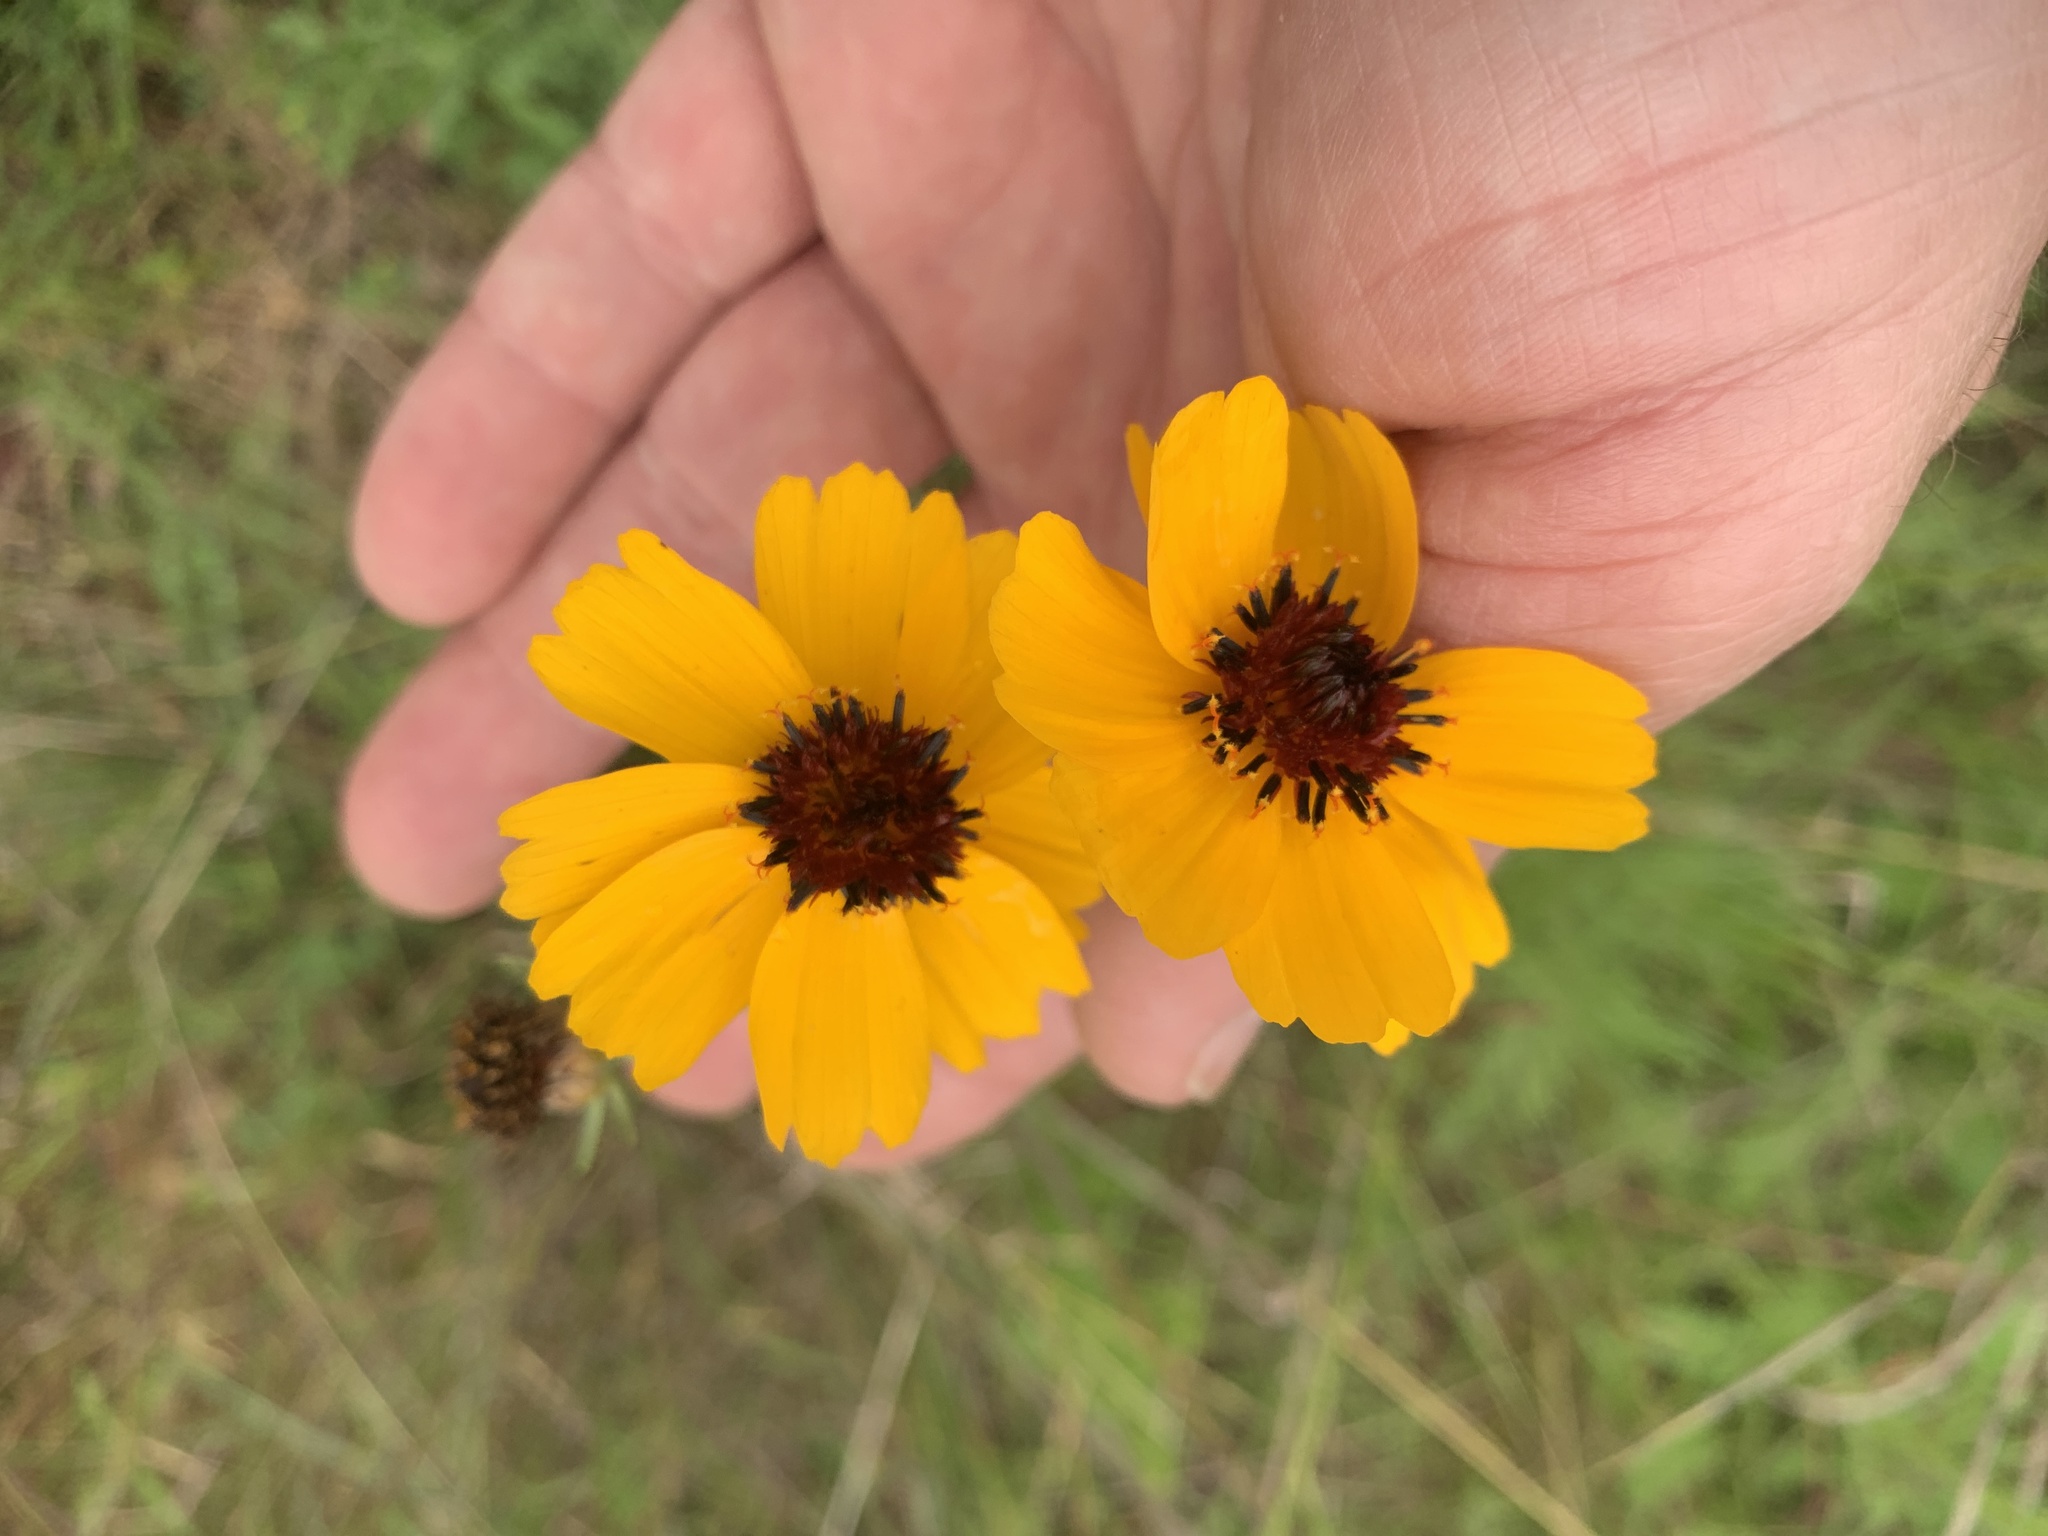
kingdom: Plantae
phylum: Tracheophyta
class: Magnoliopsida
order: Asterales
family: Asteraceae
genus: Thelesperma
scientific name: Thelesperma filifolium
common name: Stiff greenthread
